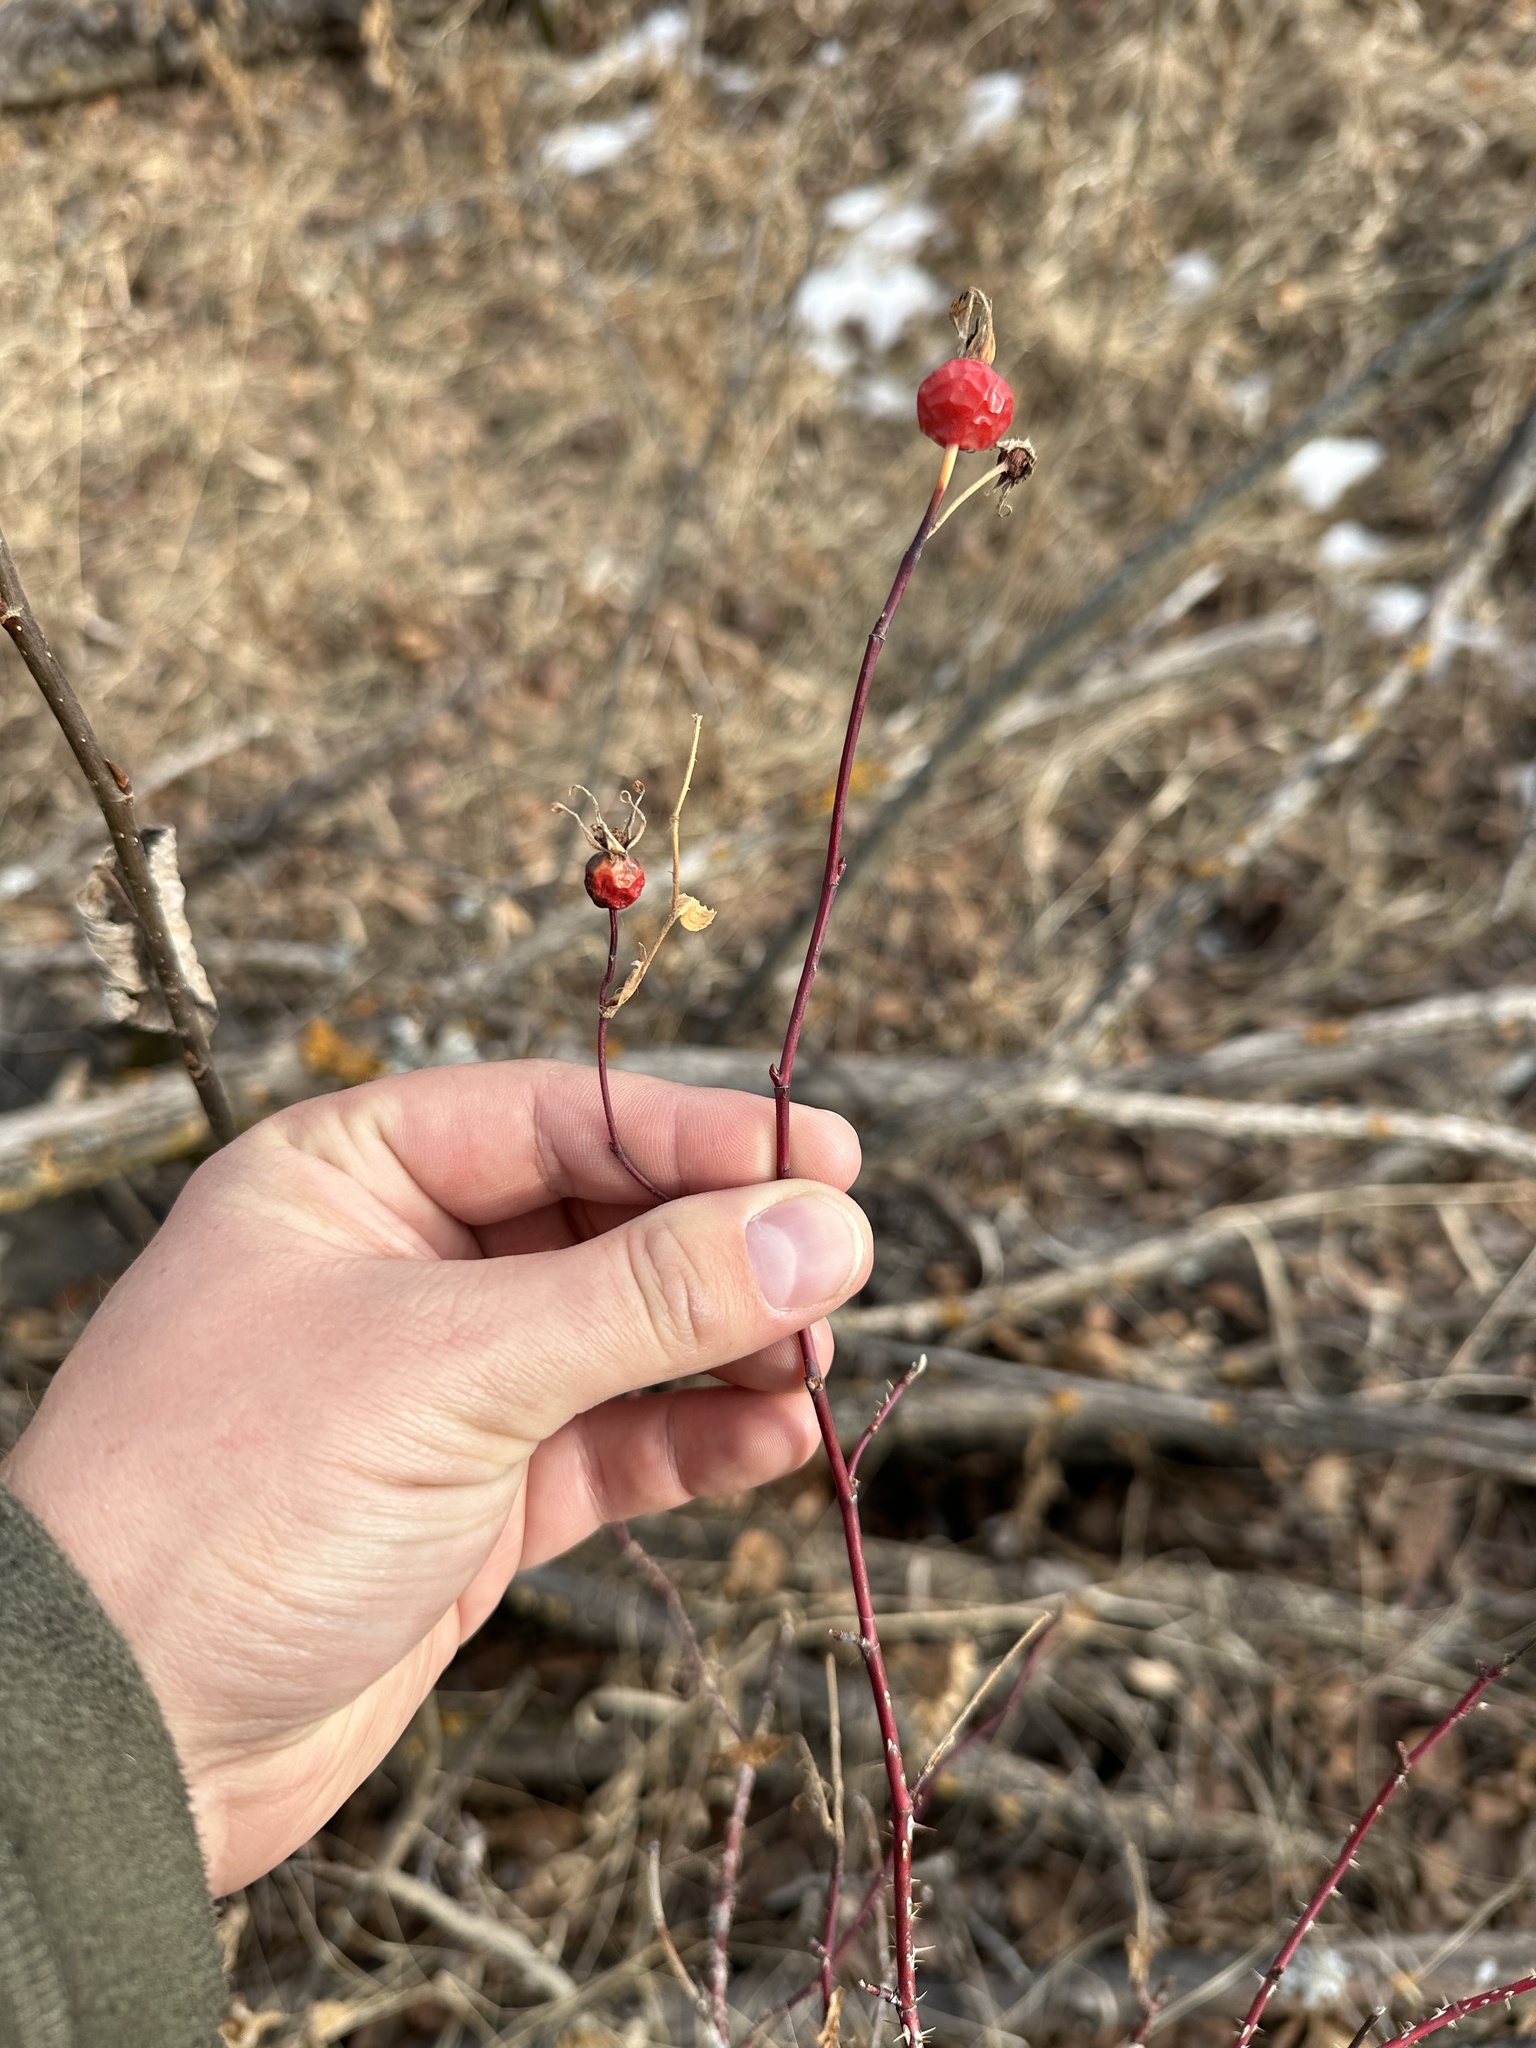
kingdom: Plantae
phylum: Tracheophyta
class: Magnoliopsida
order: Rosales
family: Rosaceae
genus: Rosa
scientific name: Rosa woodsii
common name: Woods's rose
